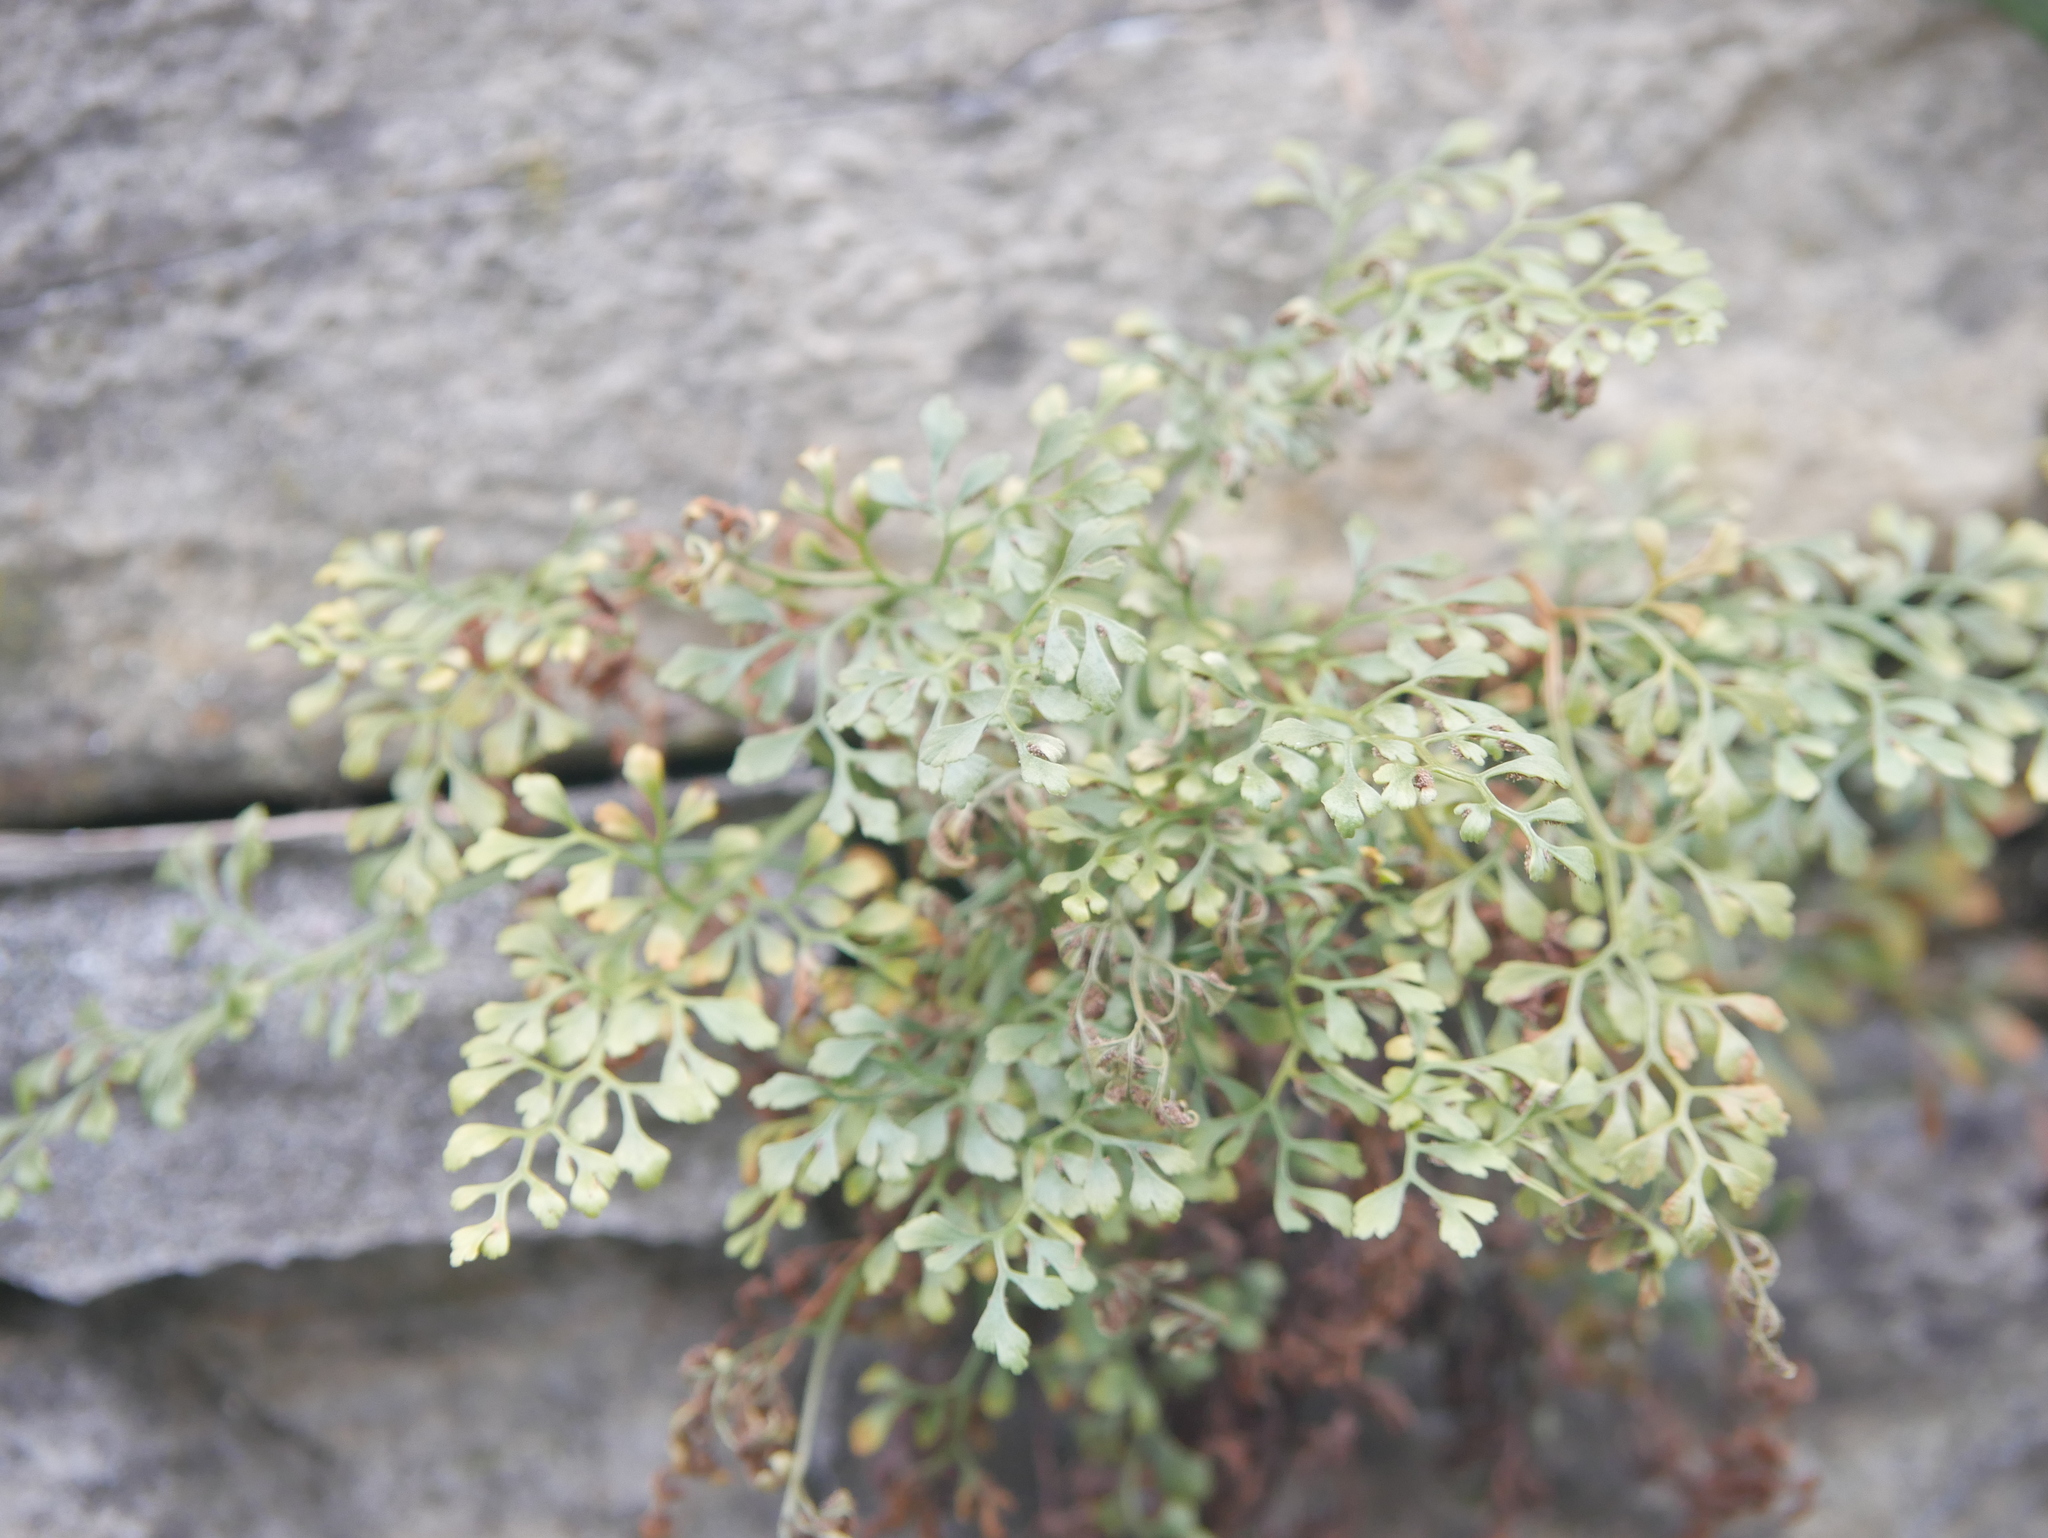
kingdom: Plantae
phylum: Tracheophyta
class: Polypodiopsida
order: Polypodiales
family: Aspleniaceae
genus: Asplenium
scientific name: Asplenium ruta-muraria
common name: Wall-rue
